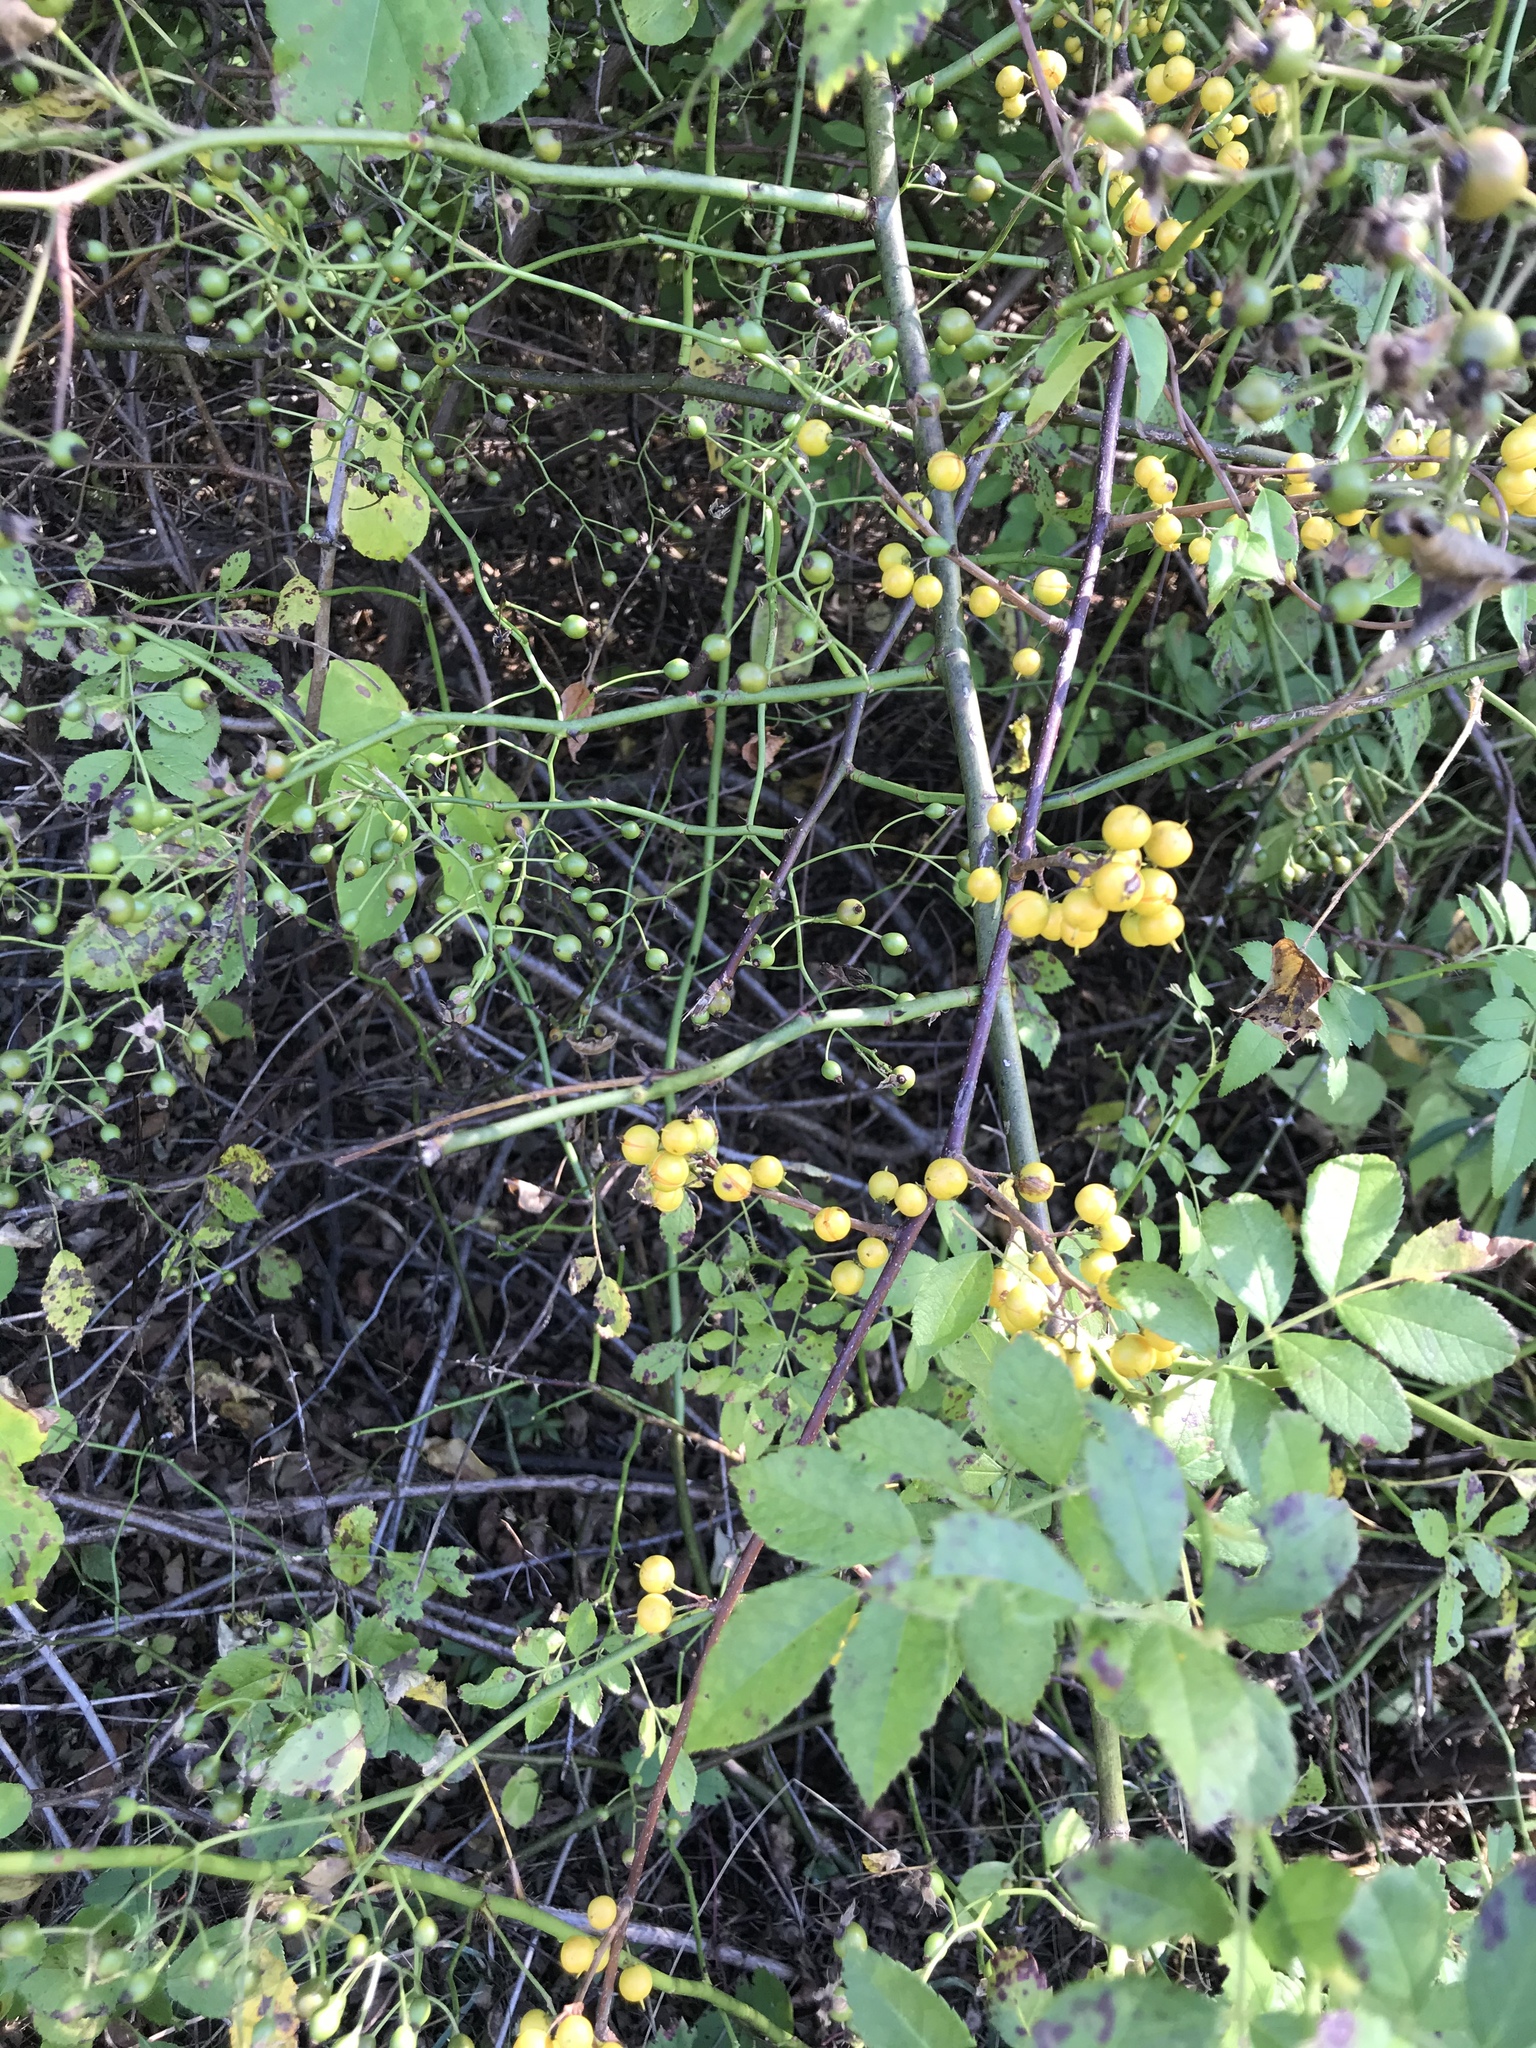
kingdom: Plantae
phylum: Tracheophyta
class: Magnoliopsida
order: Celastrales
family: Celastraceae
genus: Celastrus
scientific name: Celastrus orbiculatus
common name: Oriental bittersweet
